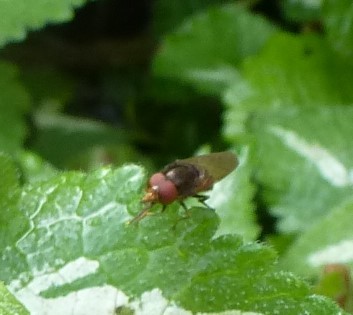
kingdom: Animalia
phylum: Arthropoda
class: Insecta
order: Diptera
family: Syrphidae
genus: Rhingia
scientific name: Rhingia nasica
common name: American snout fly
